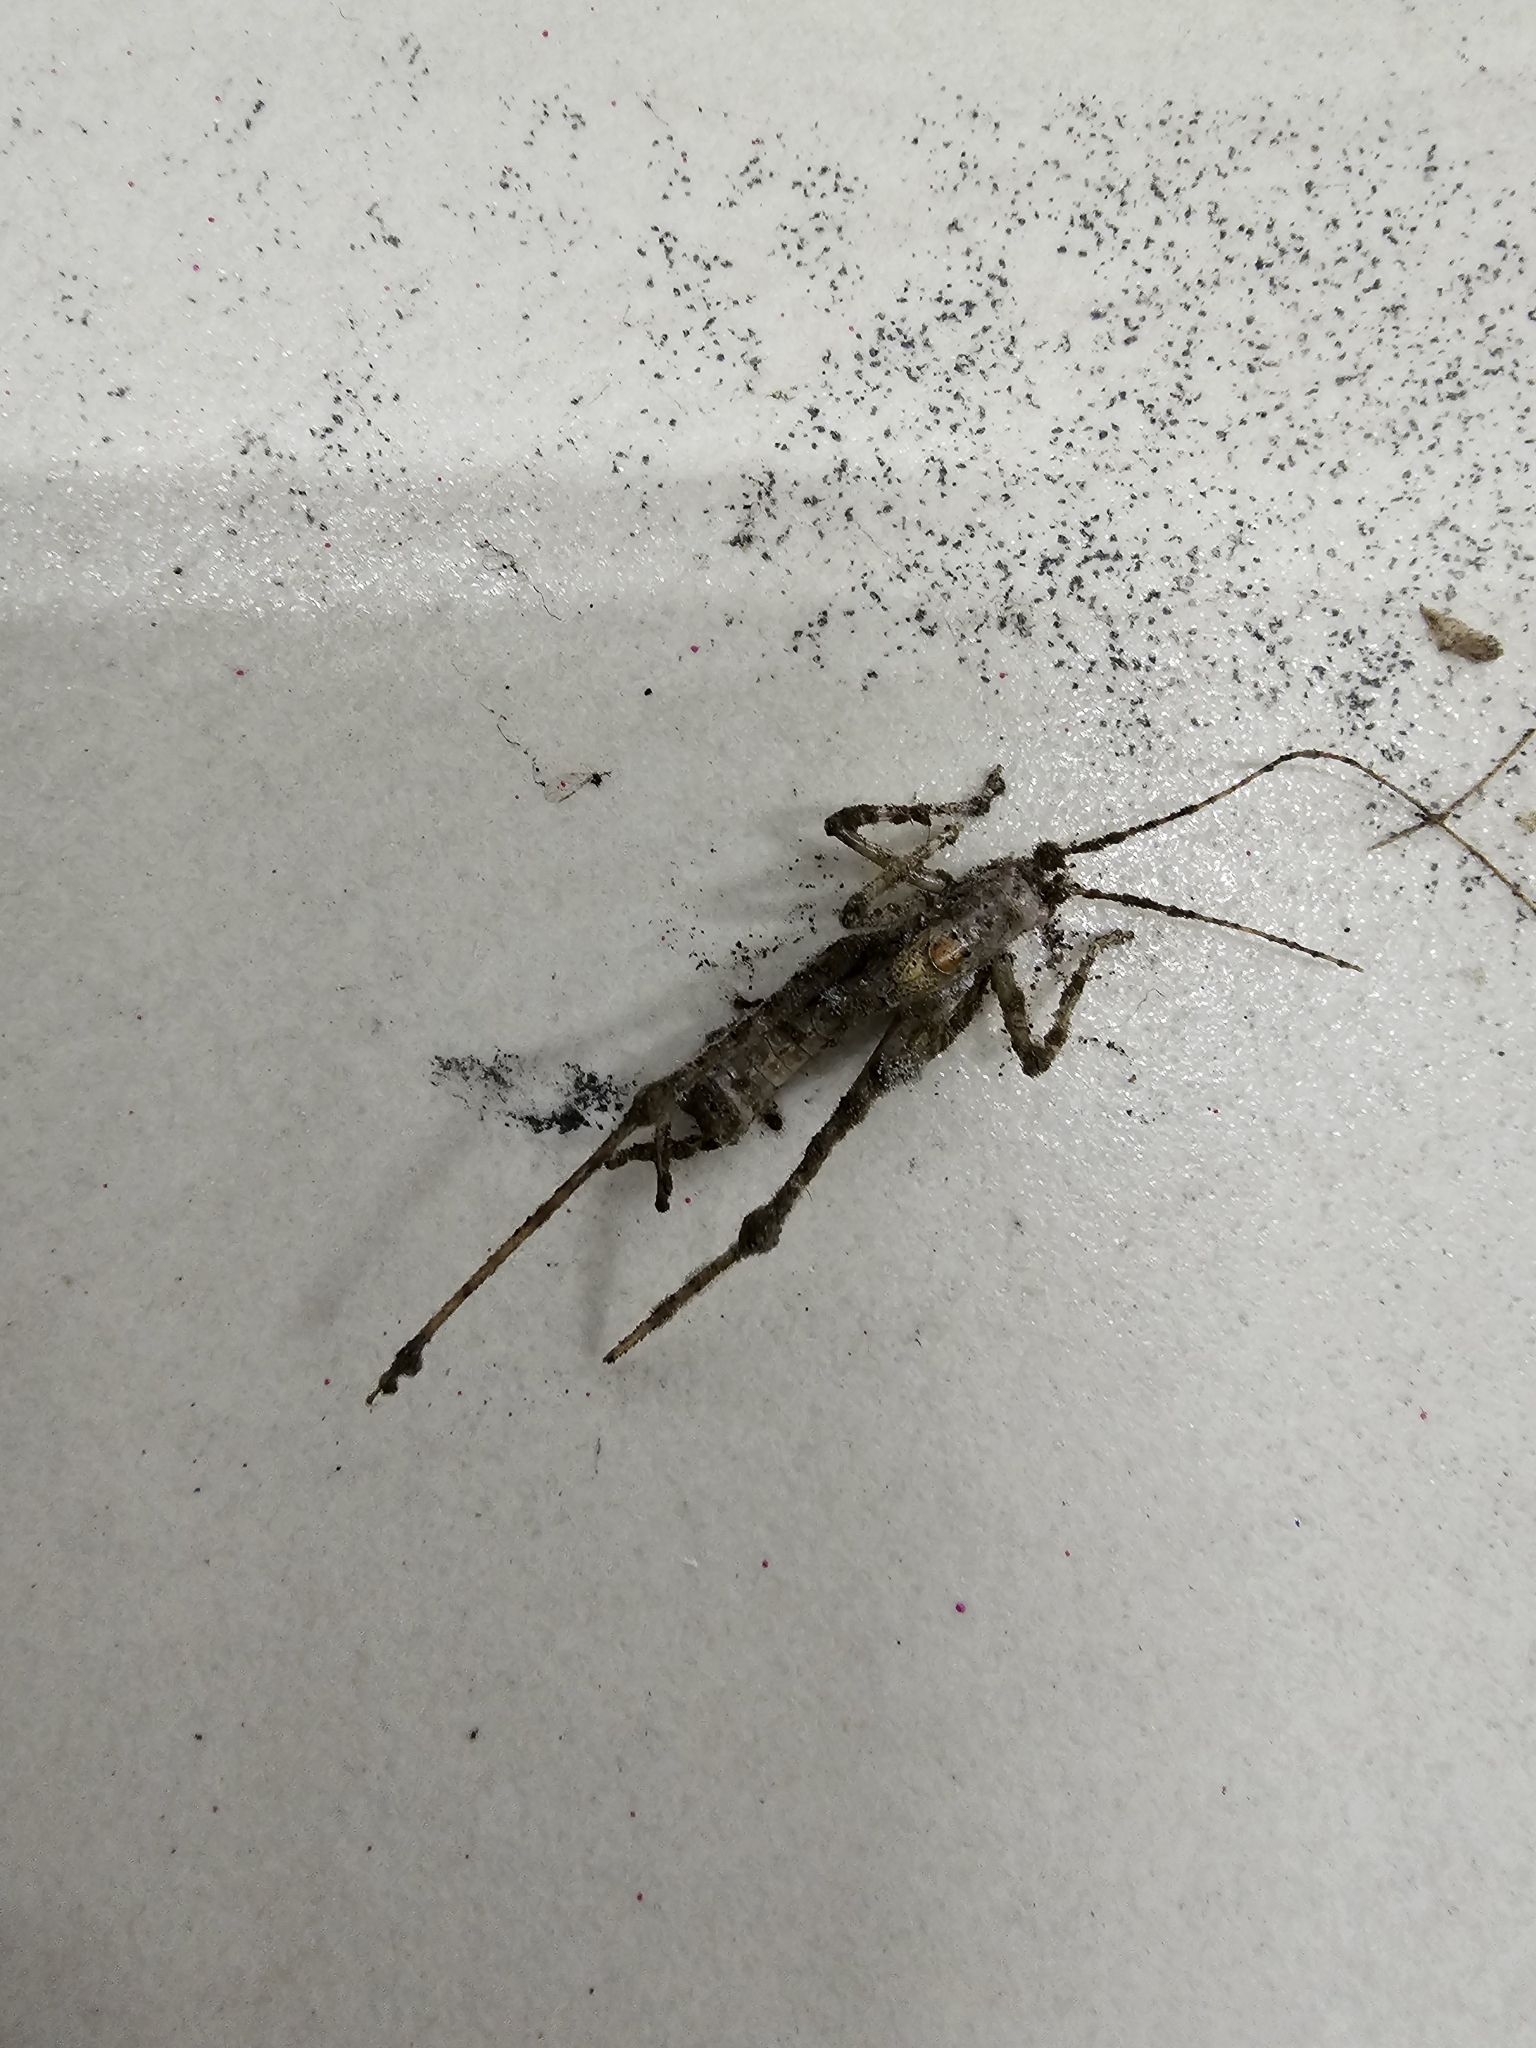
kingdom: Animalia
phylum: Arthropoda
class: Insecta
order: Orthoptera
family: Tettigoniidae
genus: Meconema
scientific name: Meconema meridionale
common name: Southern oak bush-cricket
